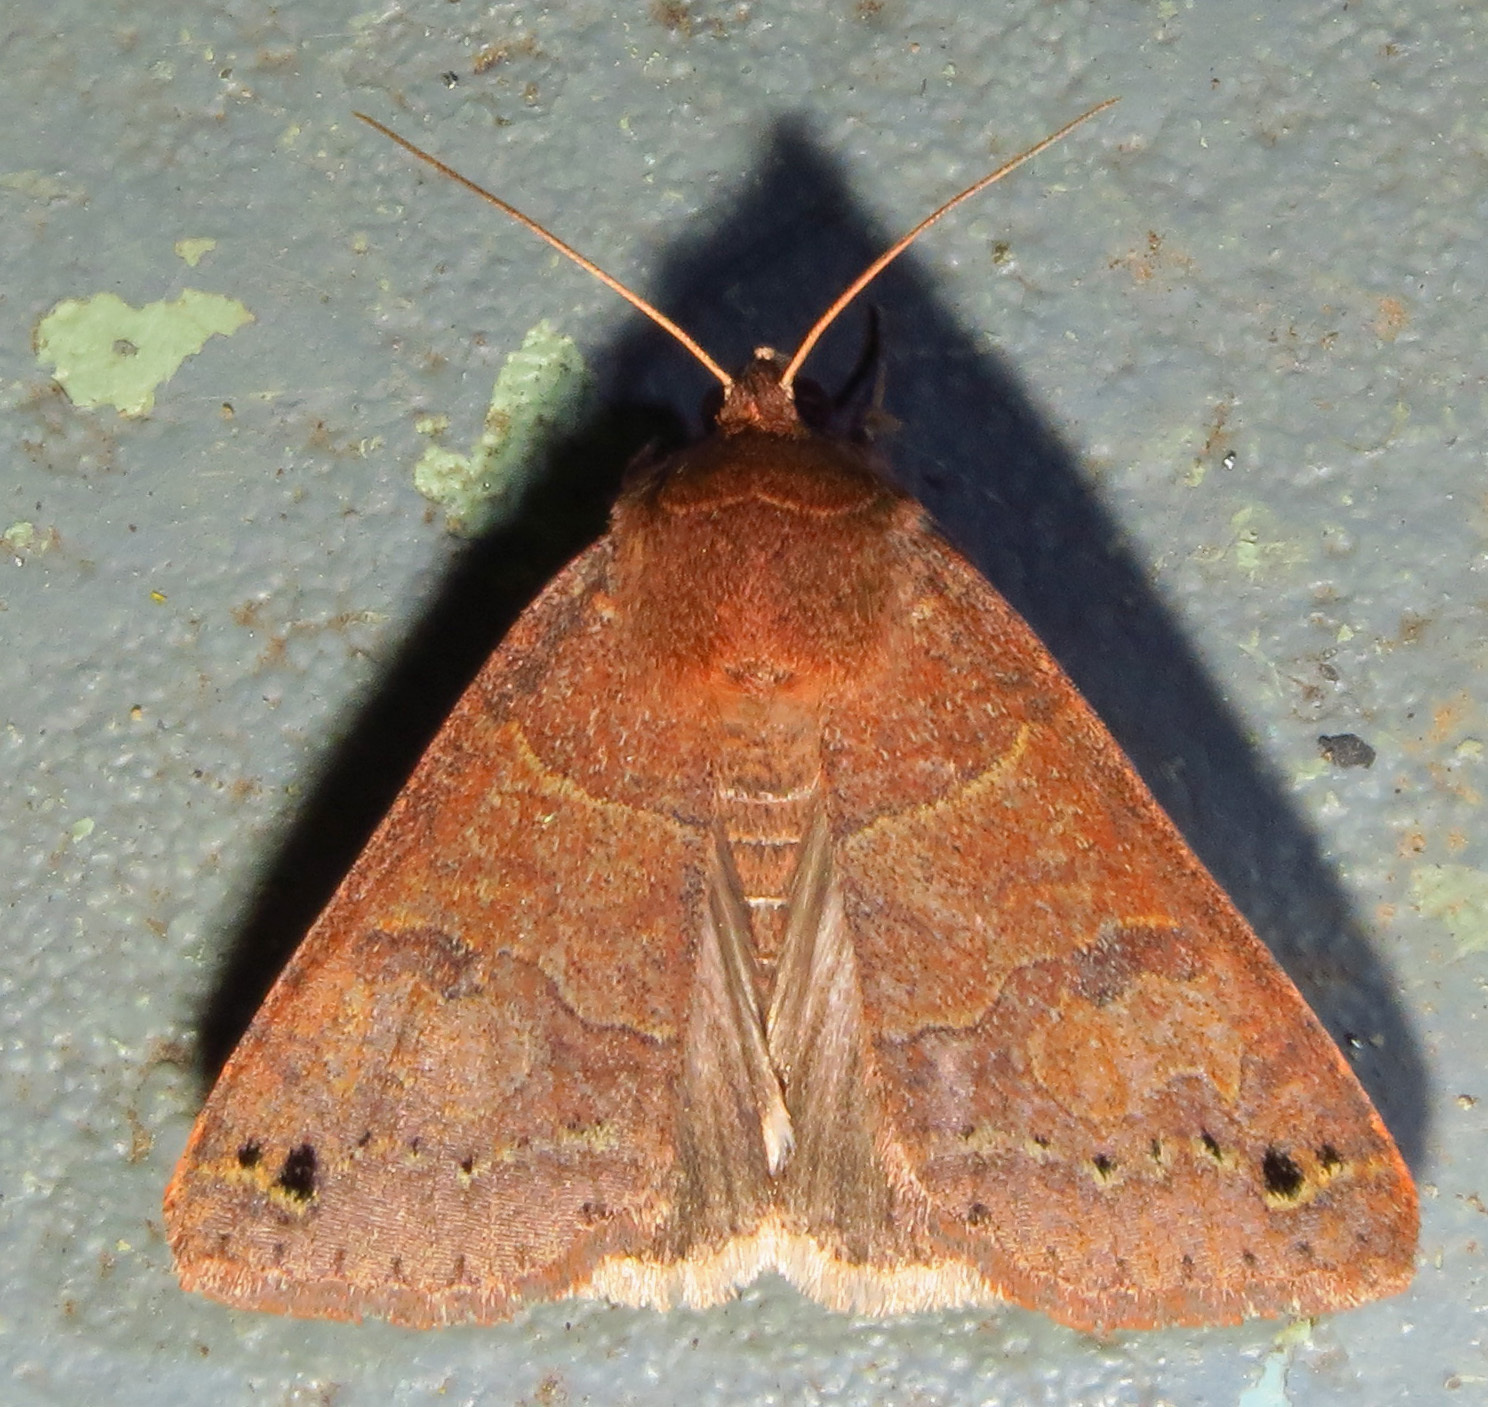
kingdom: Animalia
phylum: Arthropoda
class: Insecta
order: Lepidoptera
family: Erebidae
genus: Cissusa
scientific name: Cissusa spadix
